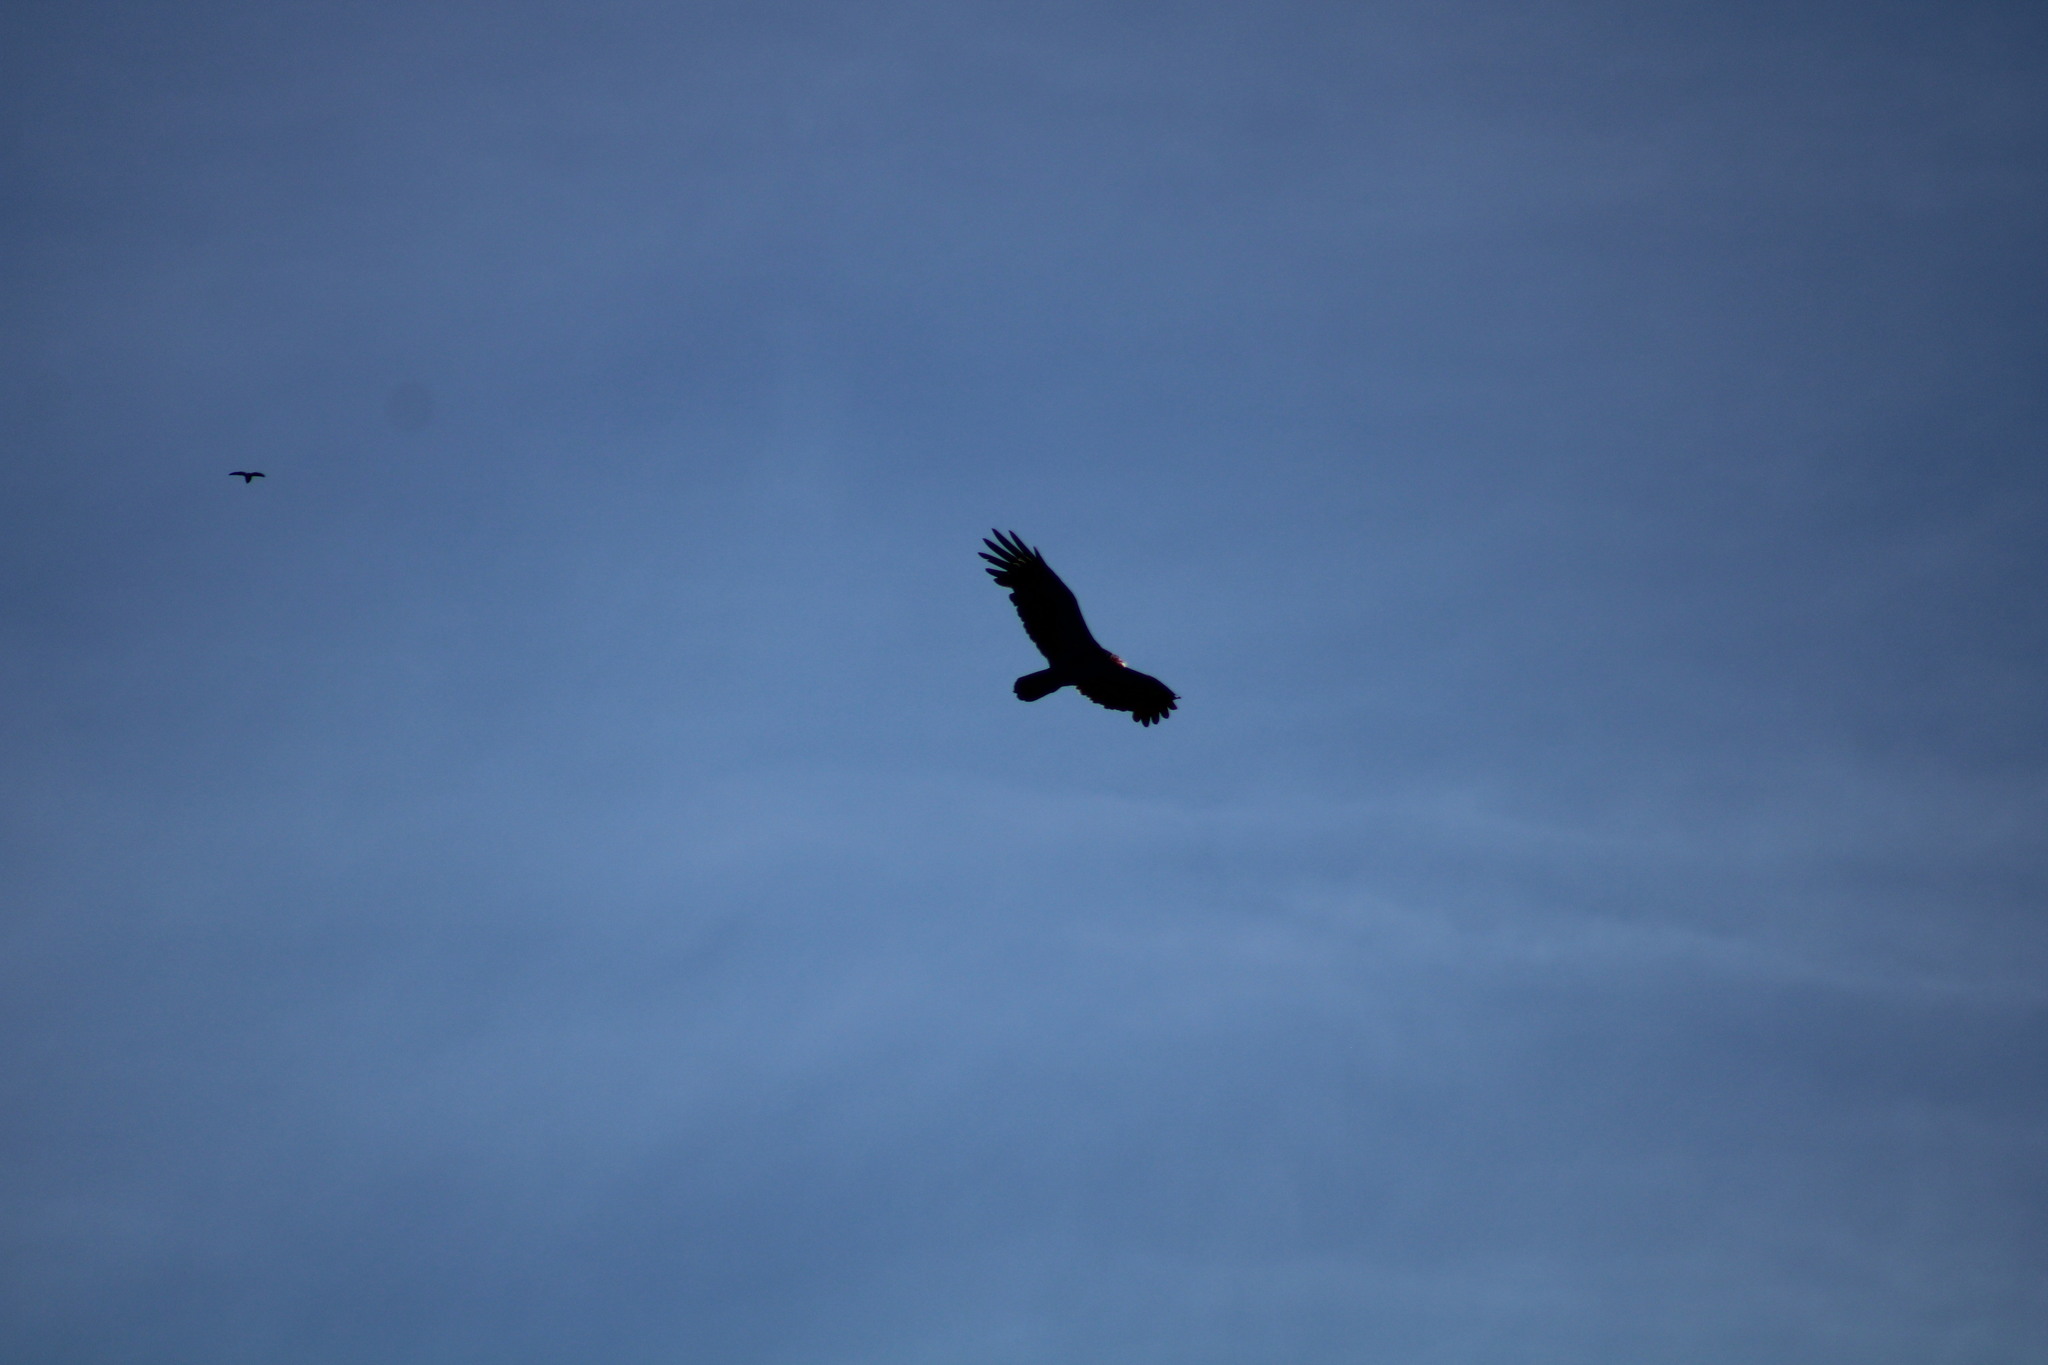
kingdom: Animalia
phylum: Chordata
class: Aves
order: Accipitriformes
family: Cathartidae
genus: Cathartes
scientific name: Cathartes aura
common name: Turkey vulture
